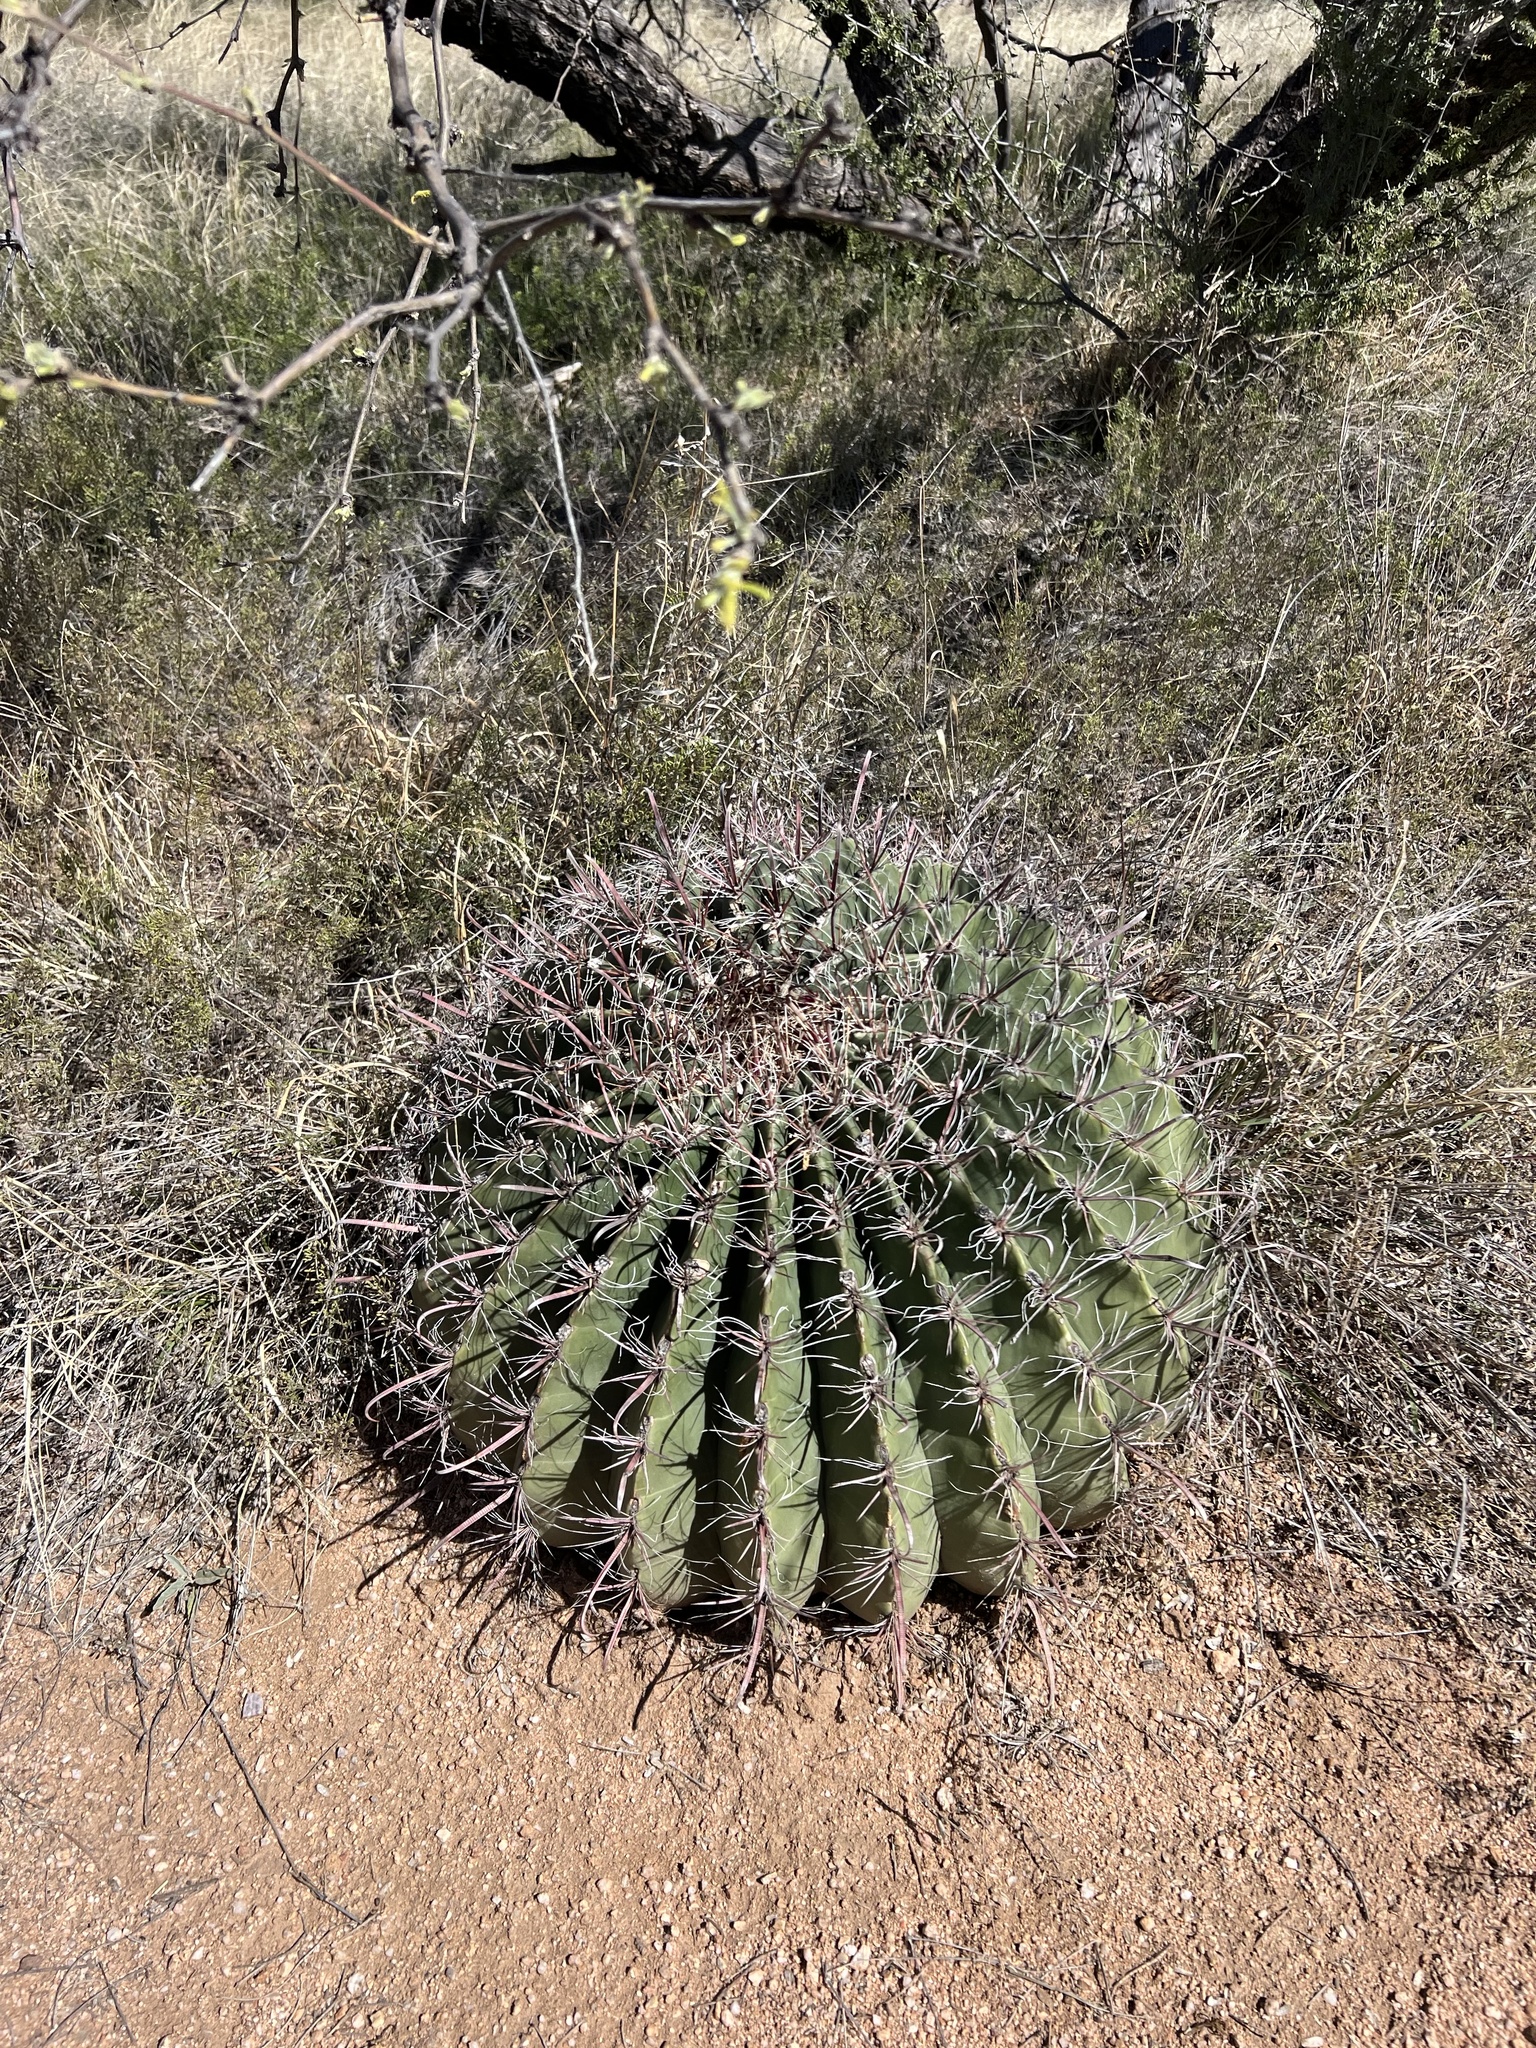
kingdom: Plantae
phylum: Tracheophyta
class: Magnoliopsida
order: Caryophyllales
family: Cactaceae
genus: Ferocactus
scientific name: Ferocactus wislizeni
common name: Candy barrel cactus
